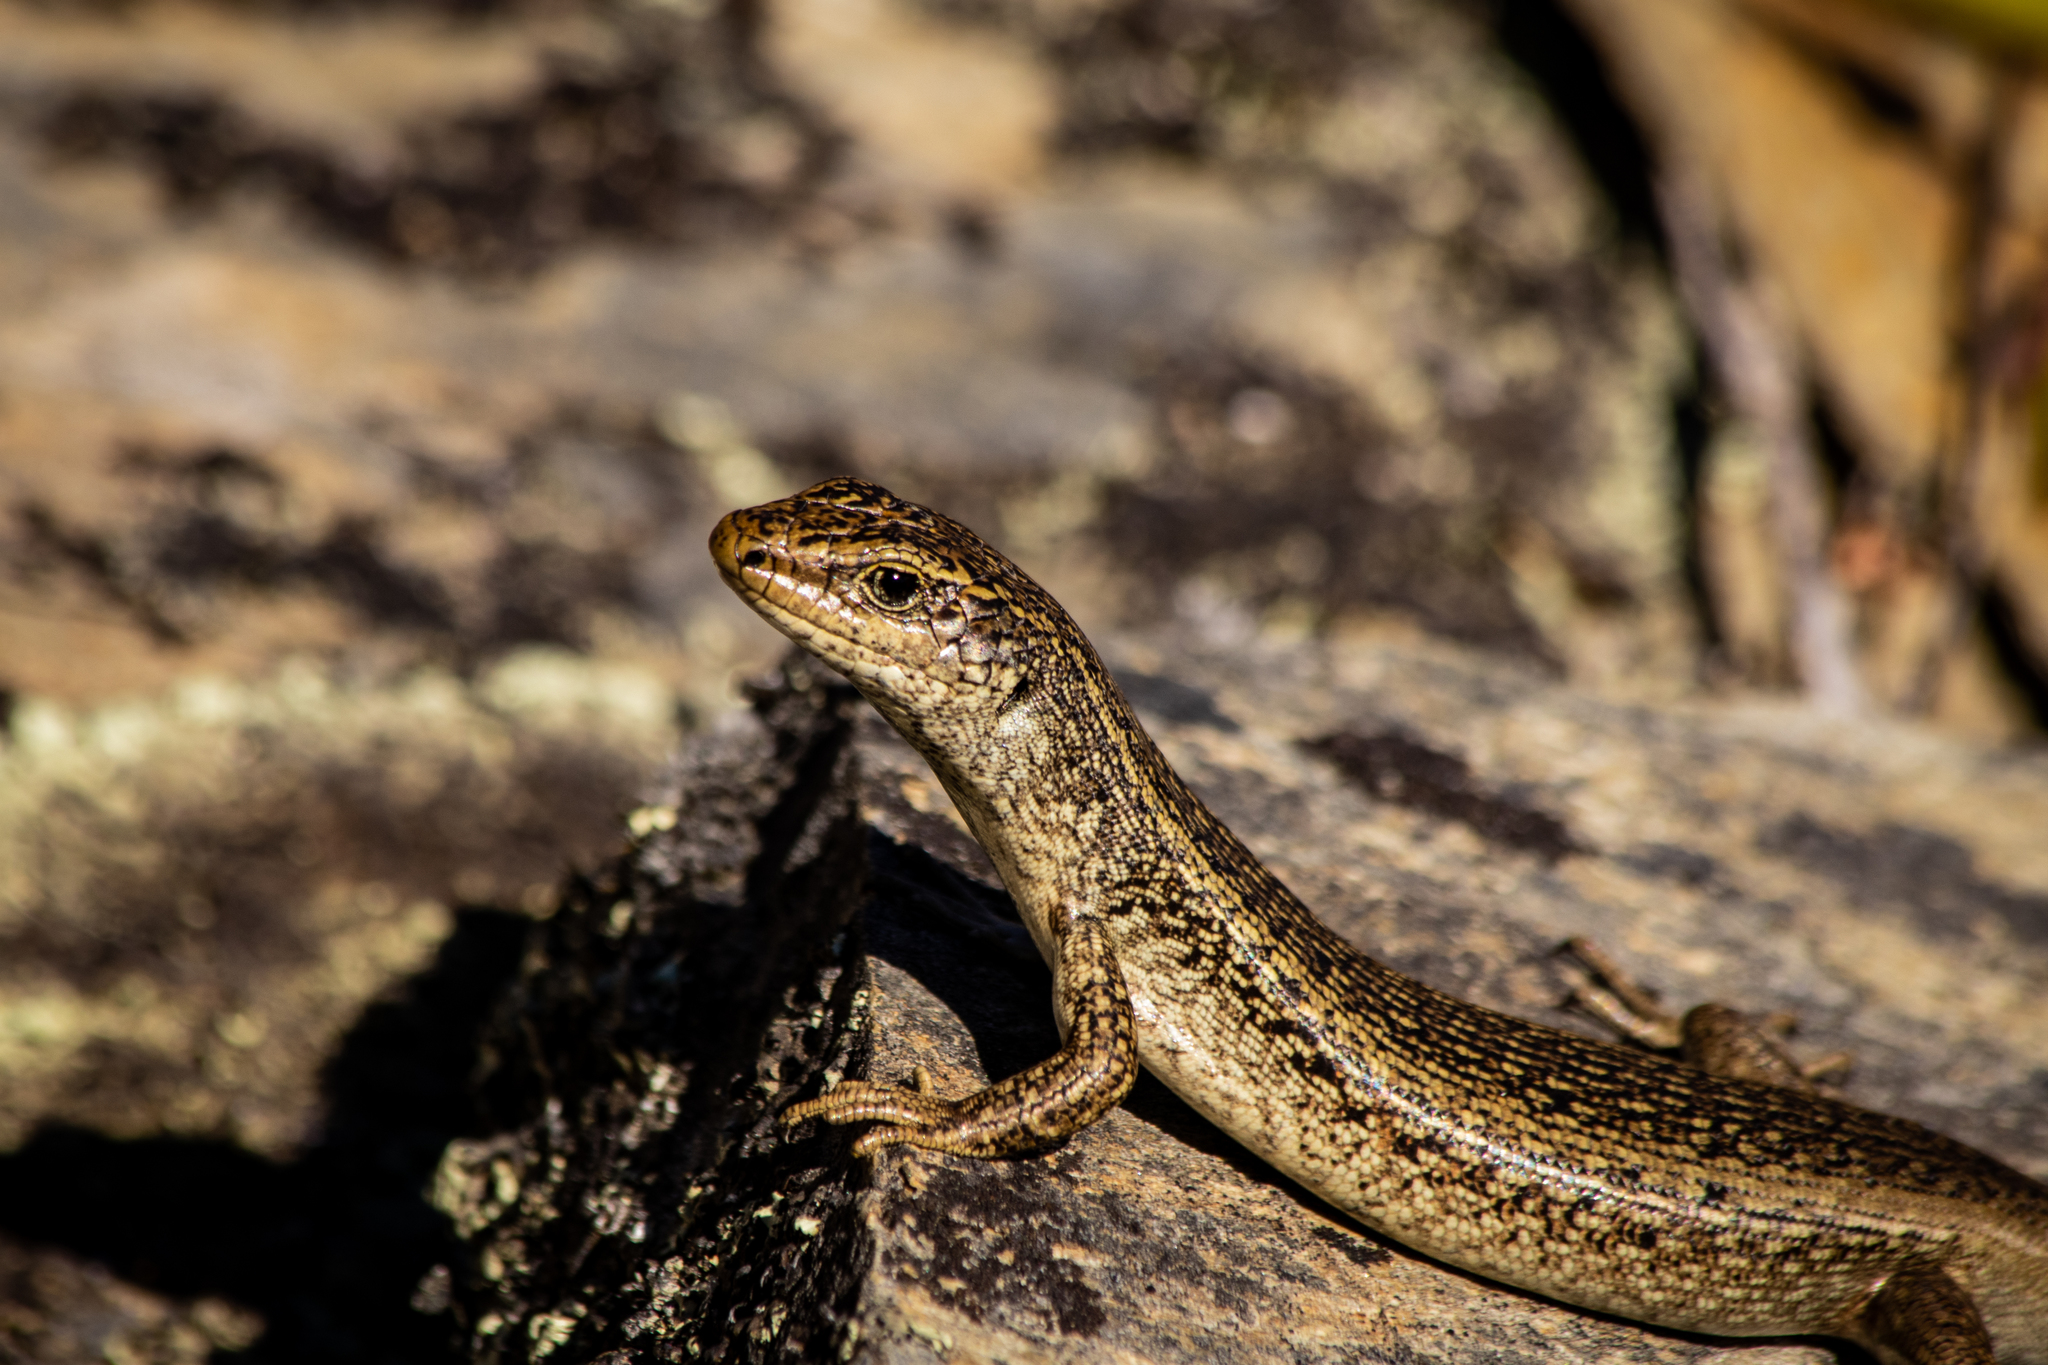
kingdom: Animalia
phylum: Chordata
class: Squamata
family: Scincidae
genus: Oligosoma
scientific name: Oligosoma grande
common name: Grand skink
